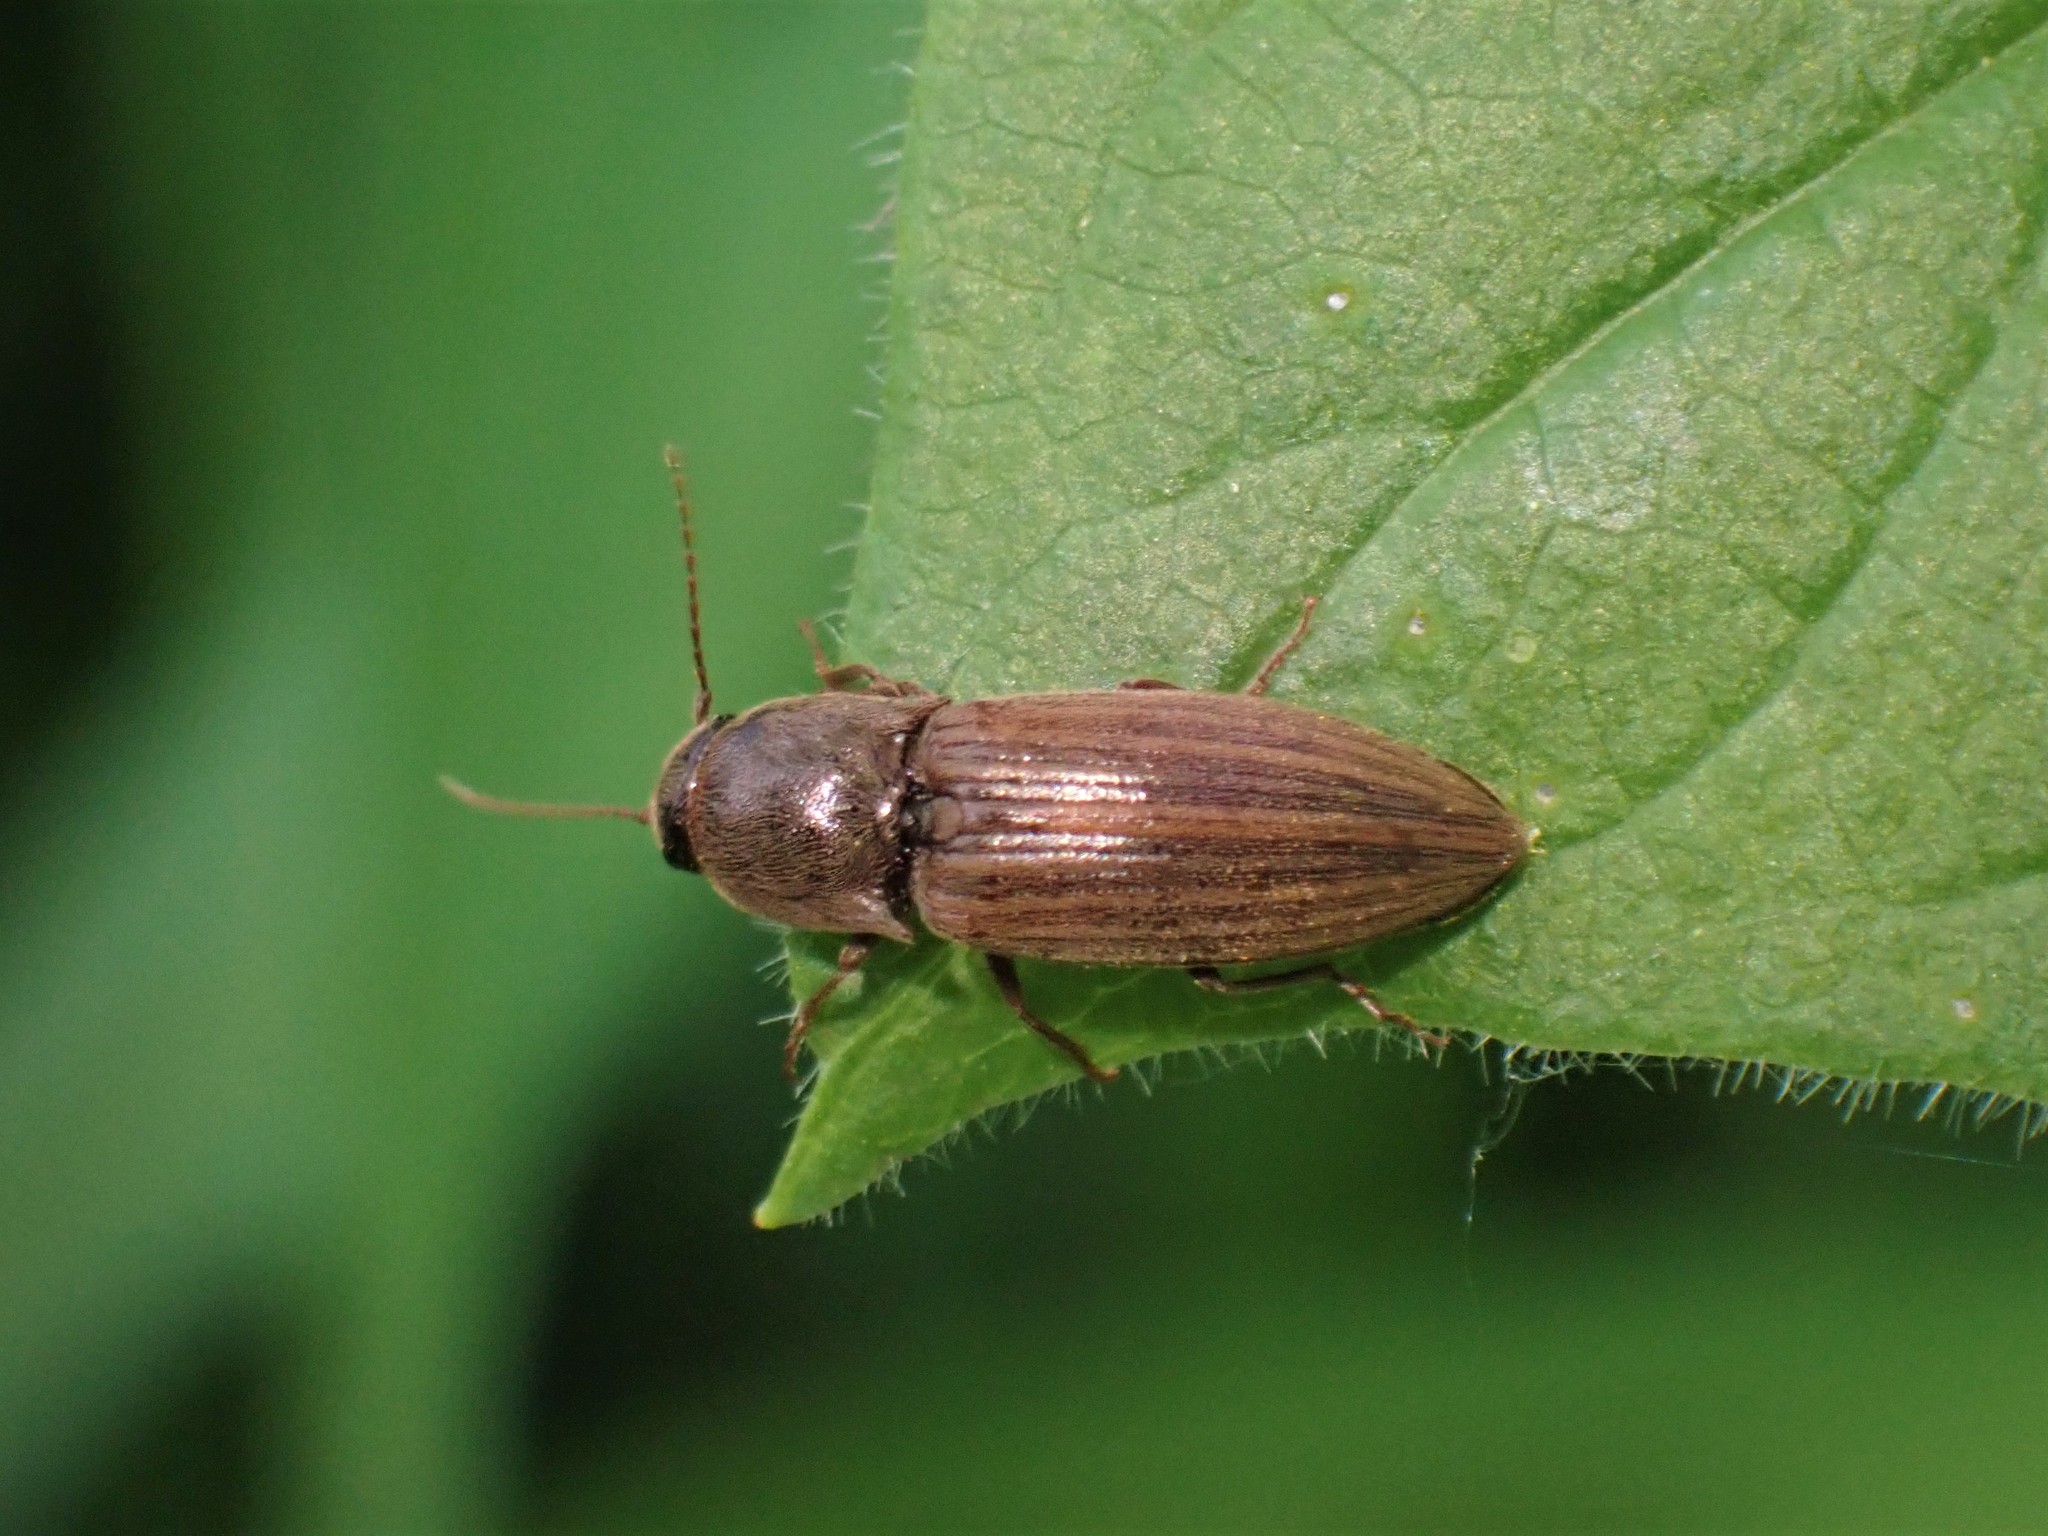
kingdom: Animalia
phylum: Arthropoda
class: Insecta
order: Coleoptera
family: Elateridae
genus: Agriotes
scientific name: Agriotes lineatus
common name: Lined click beetle
